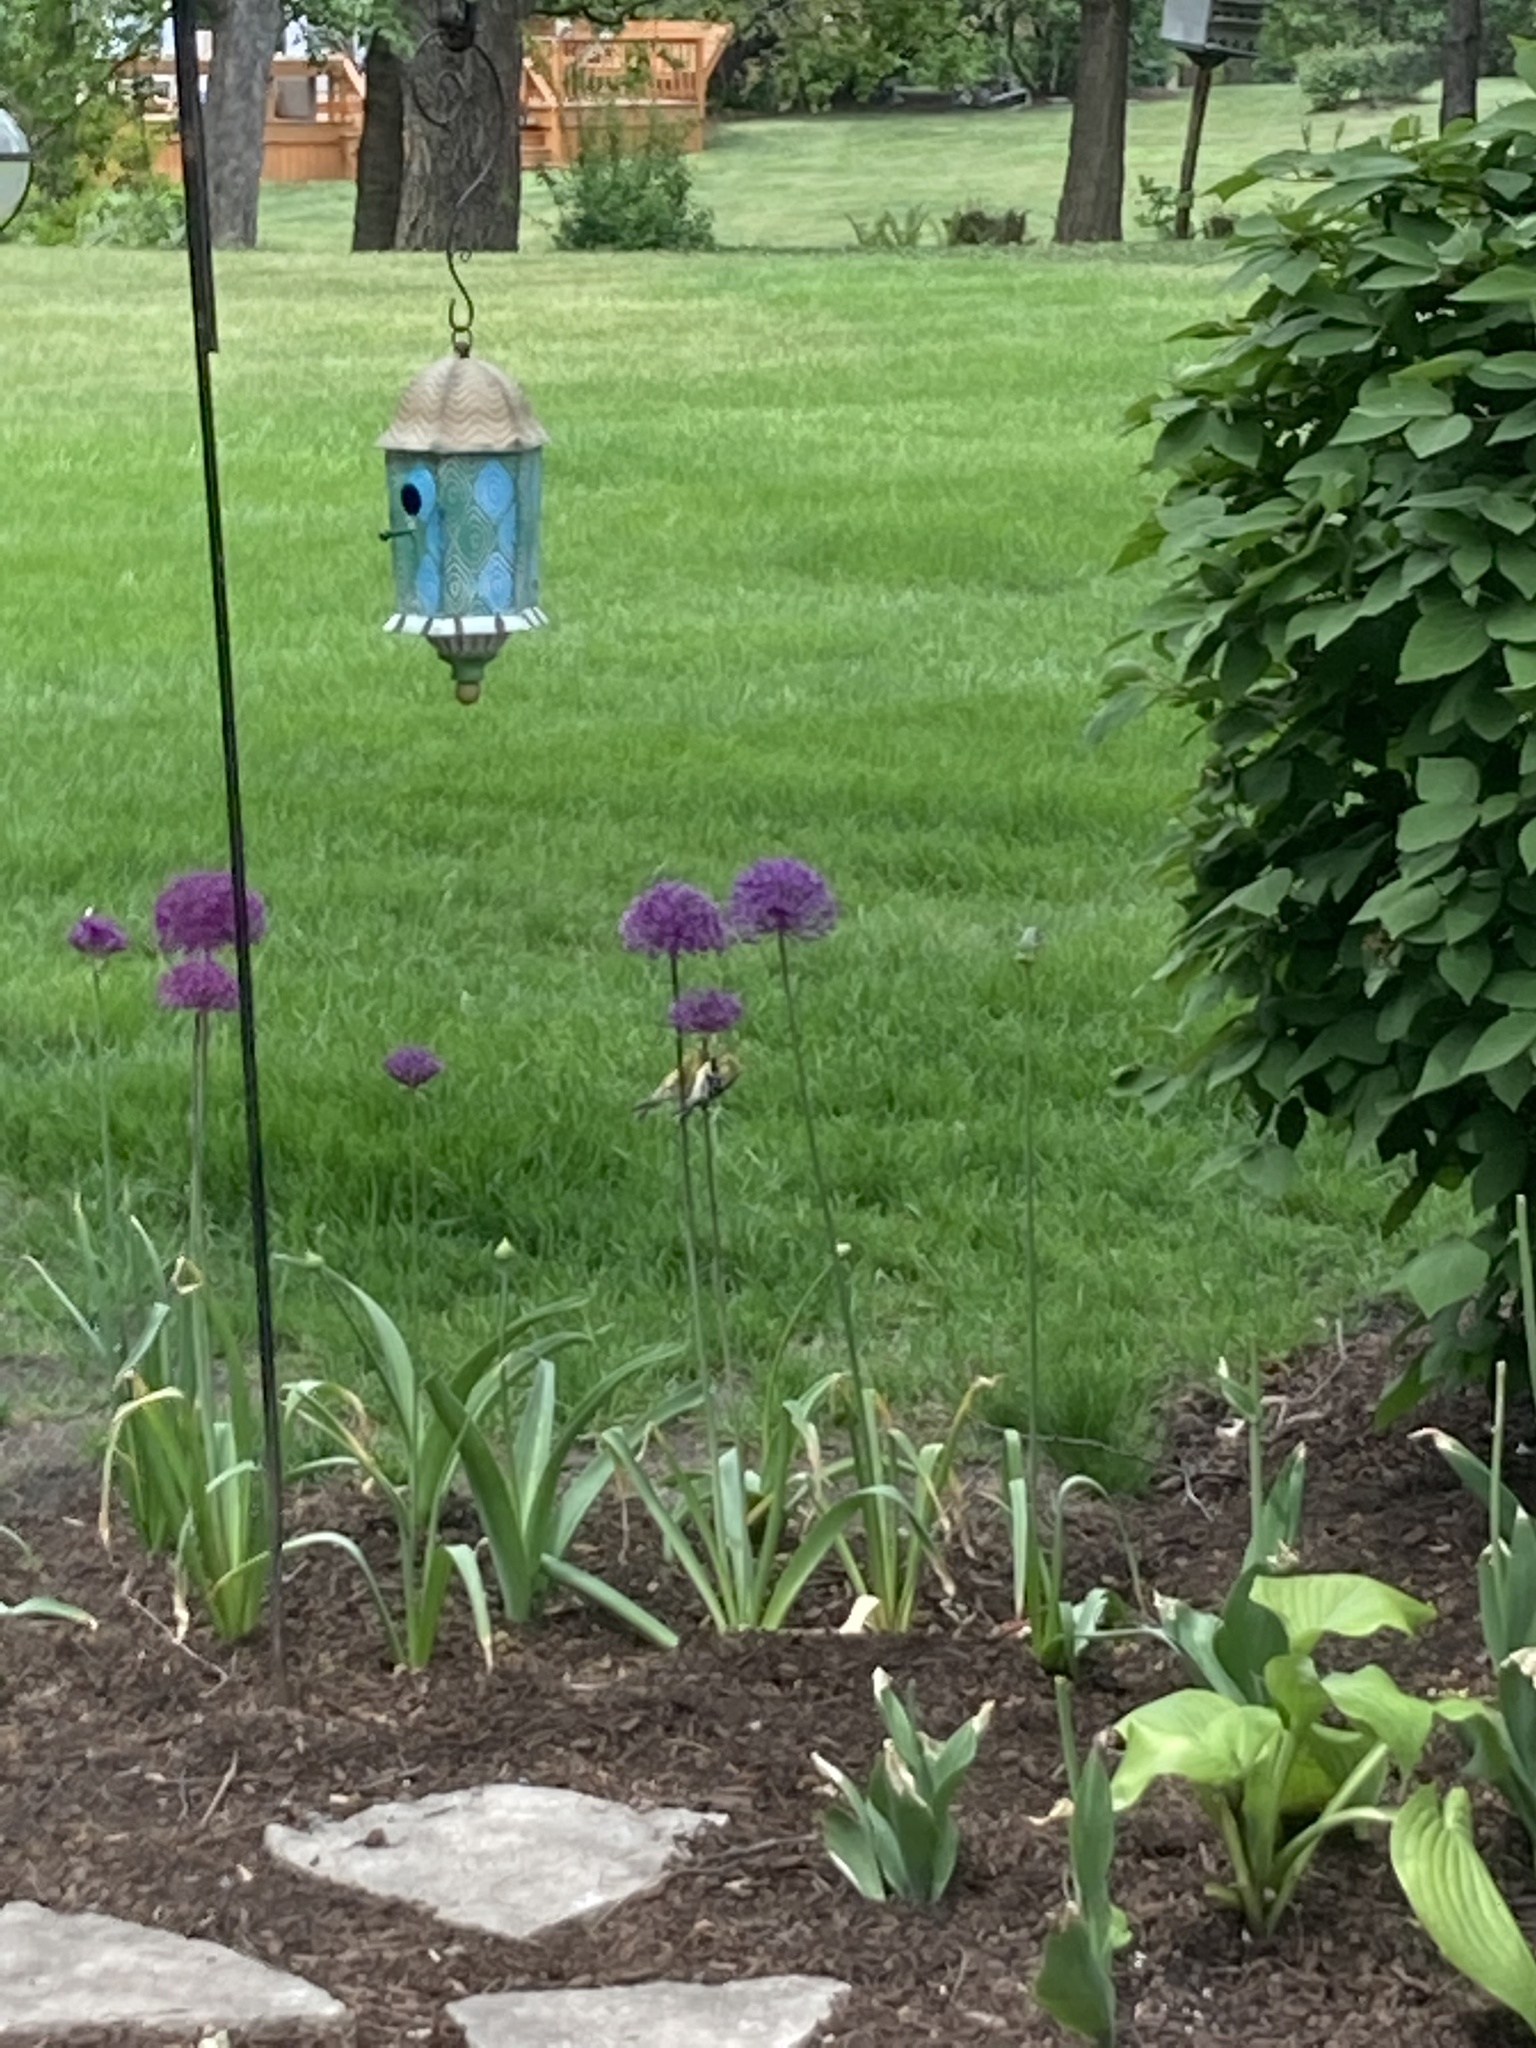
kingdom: Animalia
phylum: Chordata
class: Aves
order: Passeriformes
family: Fringillidae
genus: Spinus
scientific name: Spinus tristis
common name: American goldfinch
